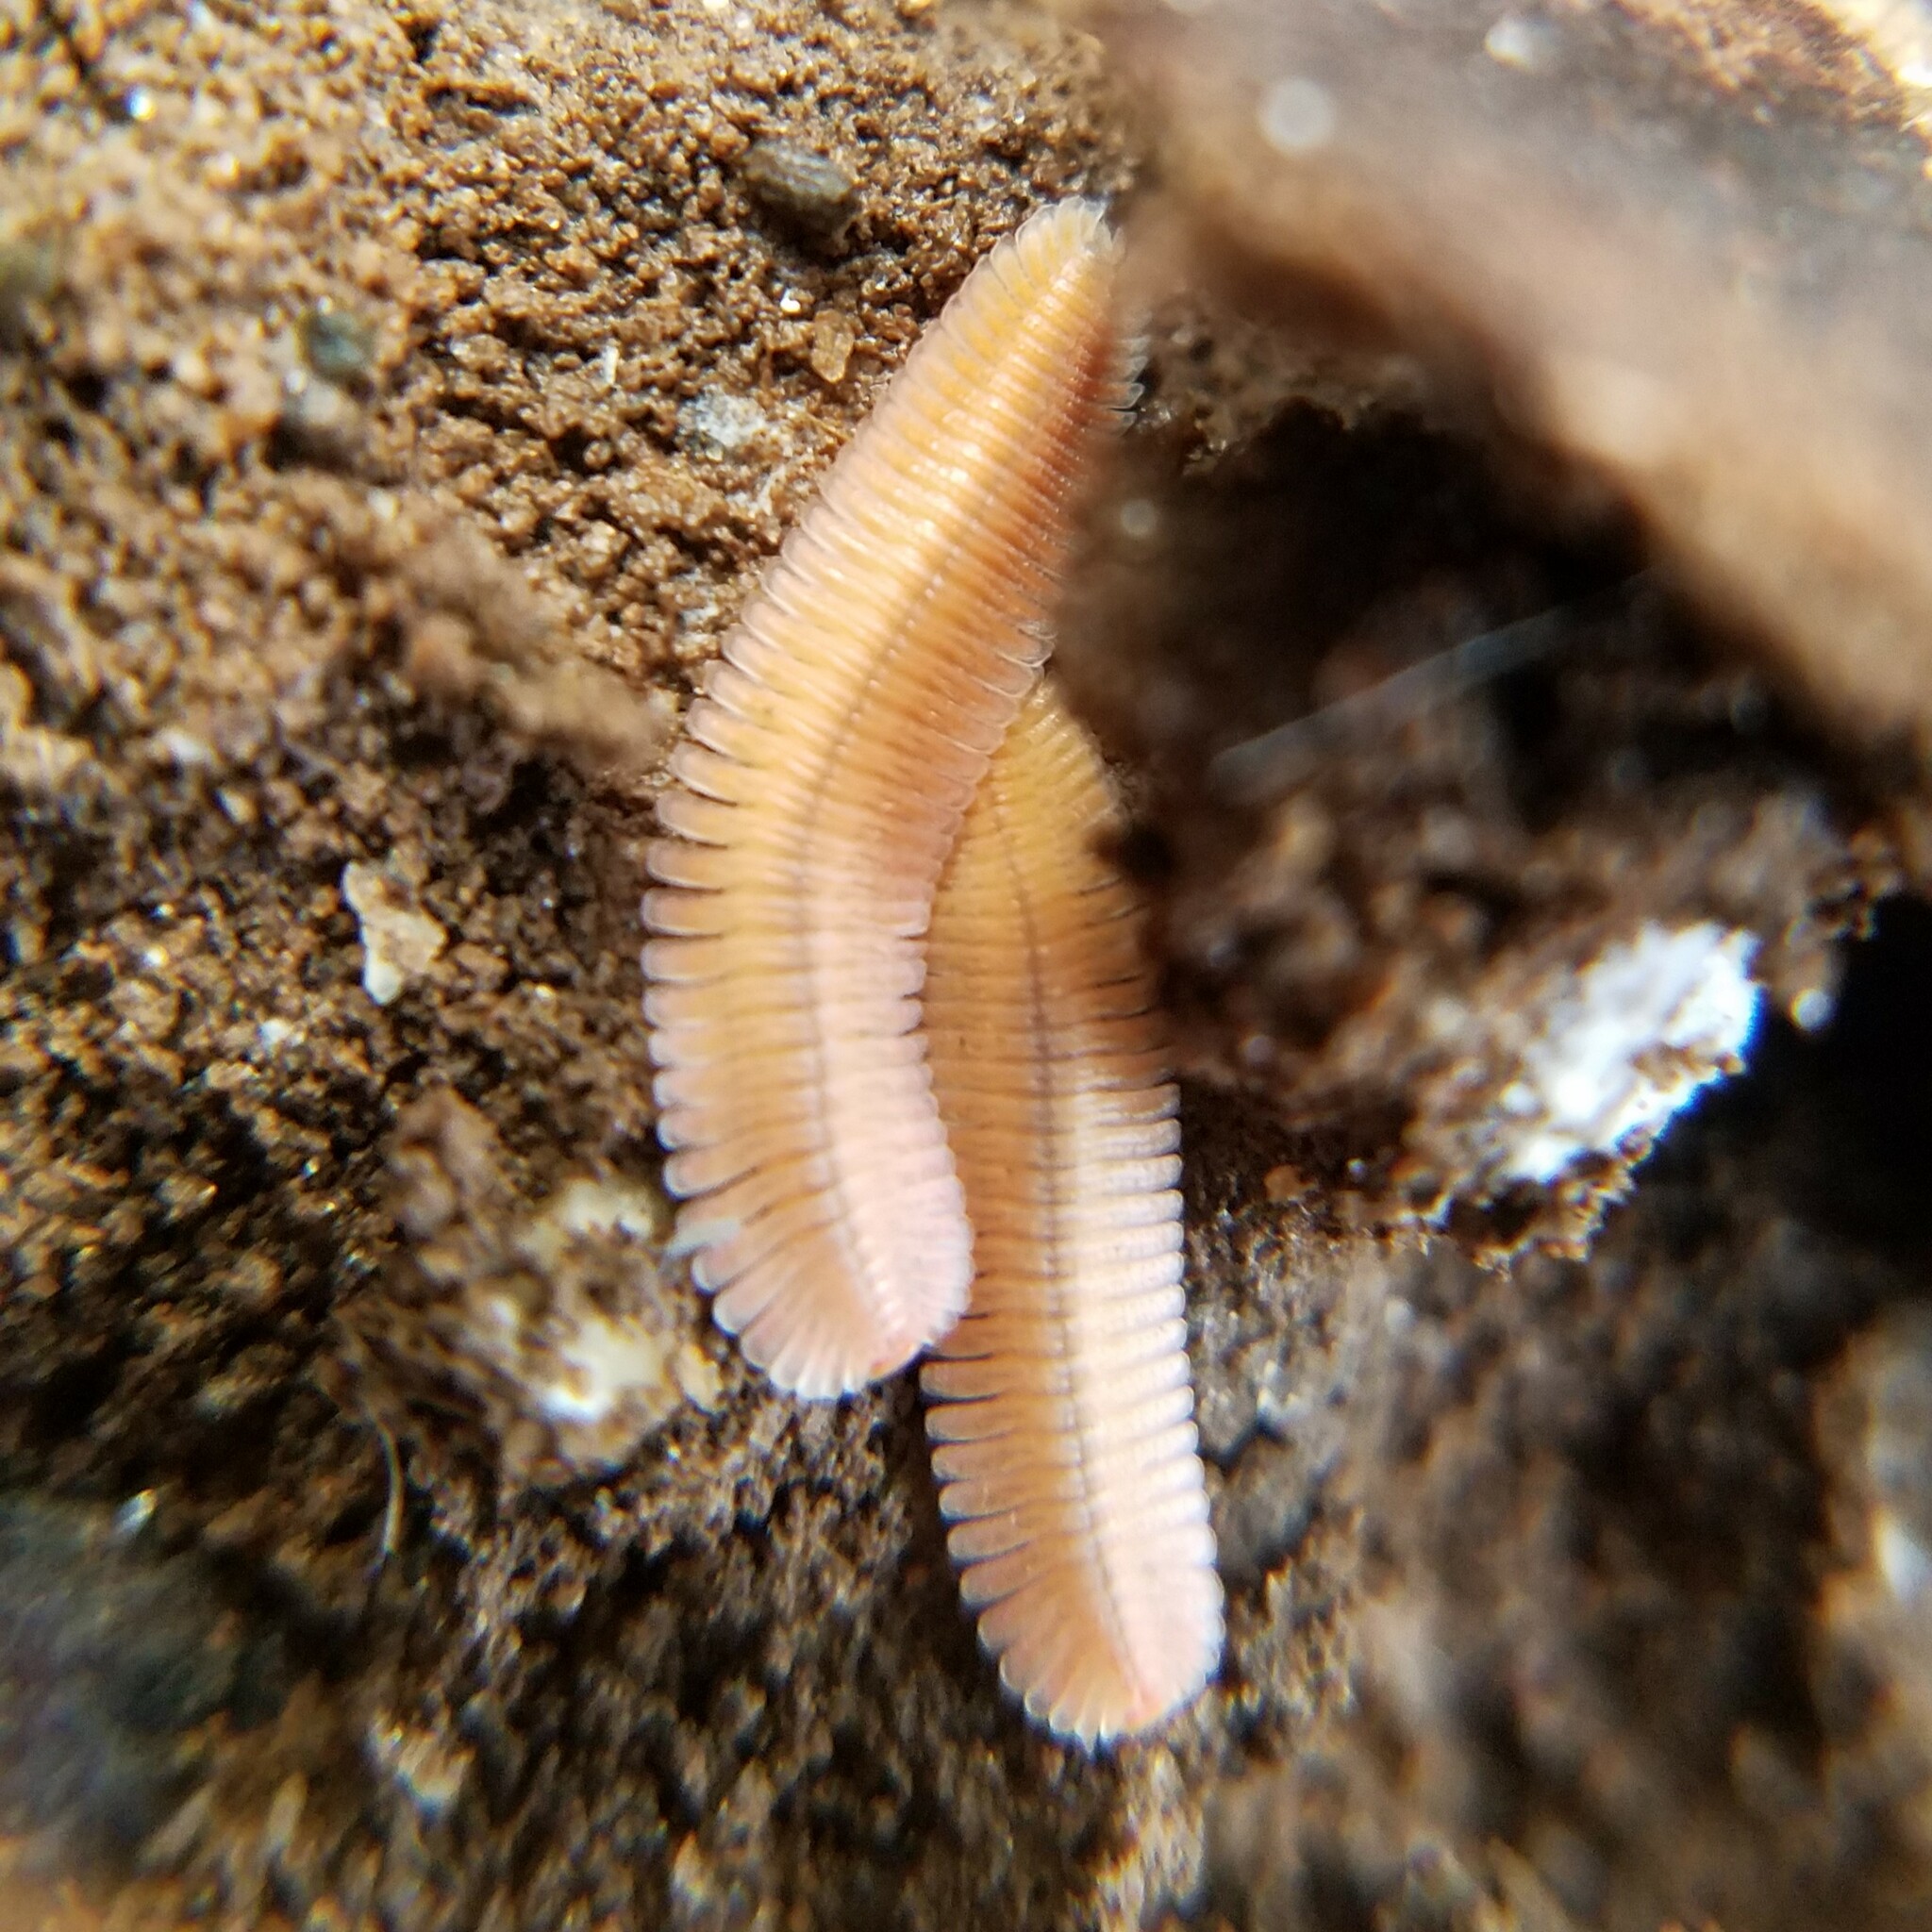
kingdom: Animalia
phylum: Arthropoda
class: Diplopoda
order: Platydesmida
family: Andrognathidae
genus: Brachycybe
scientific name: Brachycybe lecontii
